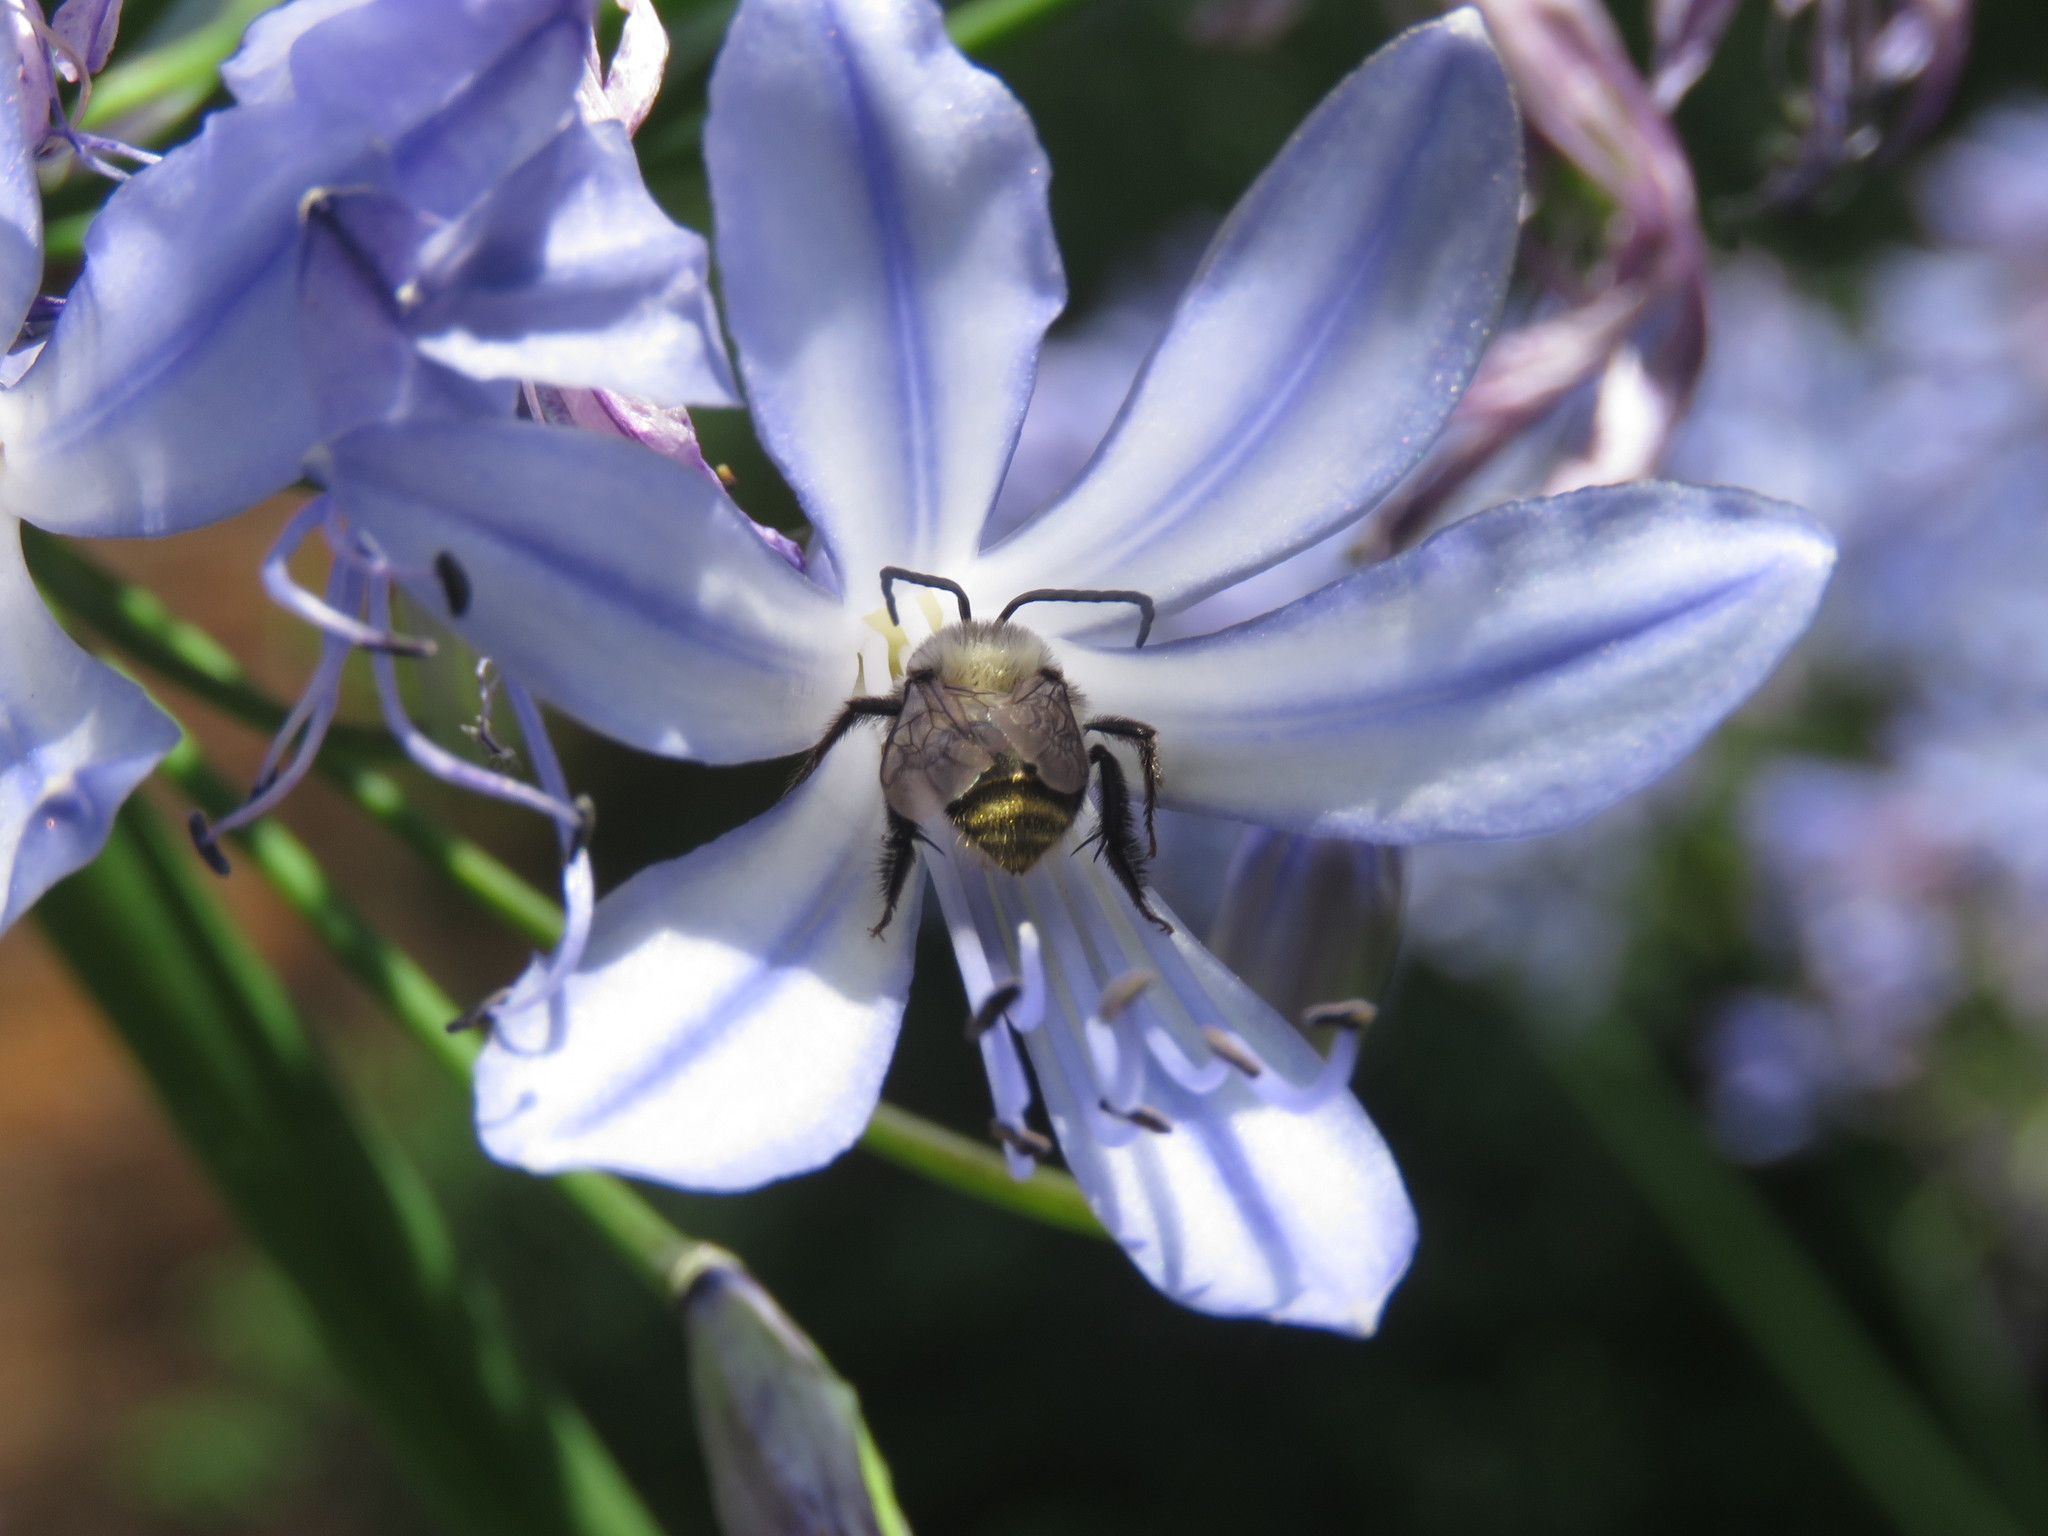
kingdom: Animalia
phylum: Arthropoda
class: Insecta
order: Hymenoptera
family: Apidae
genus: Thygater
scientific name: Thygater aethiops
